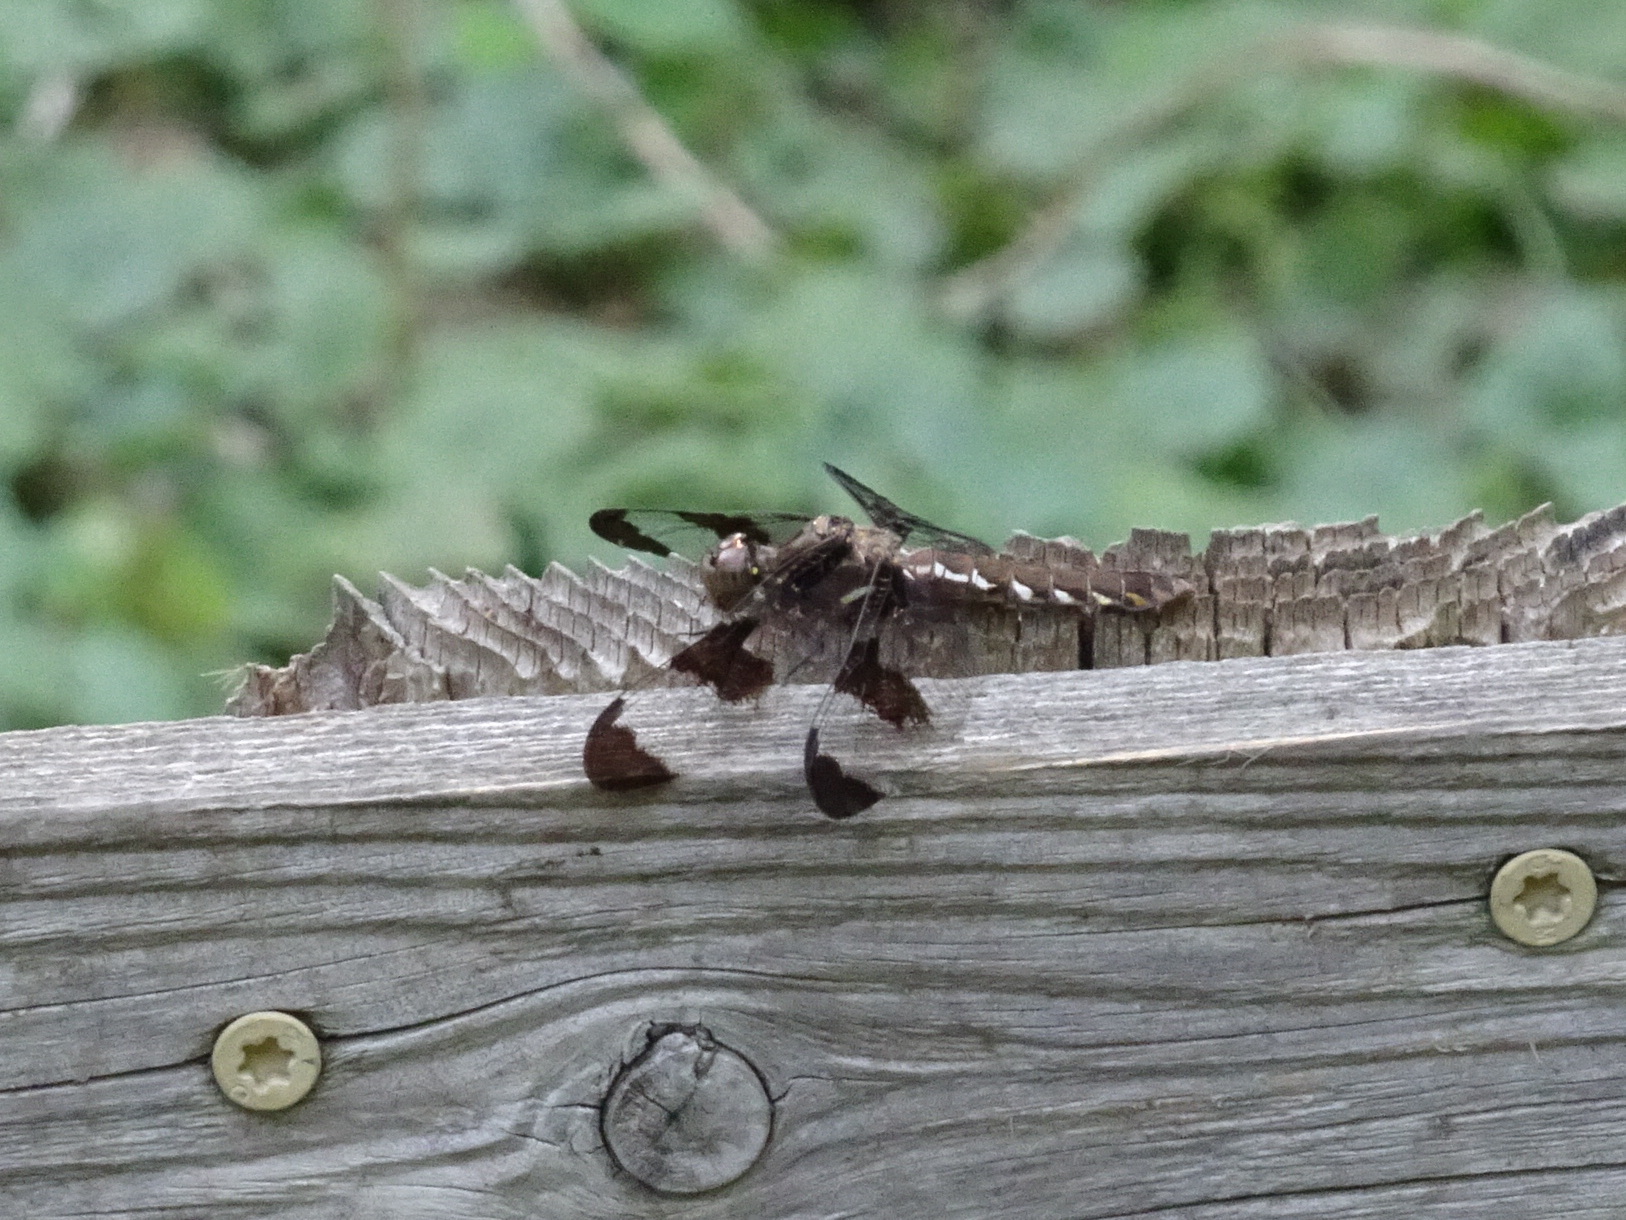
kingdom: Animalia
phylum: Arthropoda
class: Insecta
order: Odonata
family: Libellulidae
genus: Plathemis
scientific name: Plathemis lydia
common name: Common whitetail
